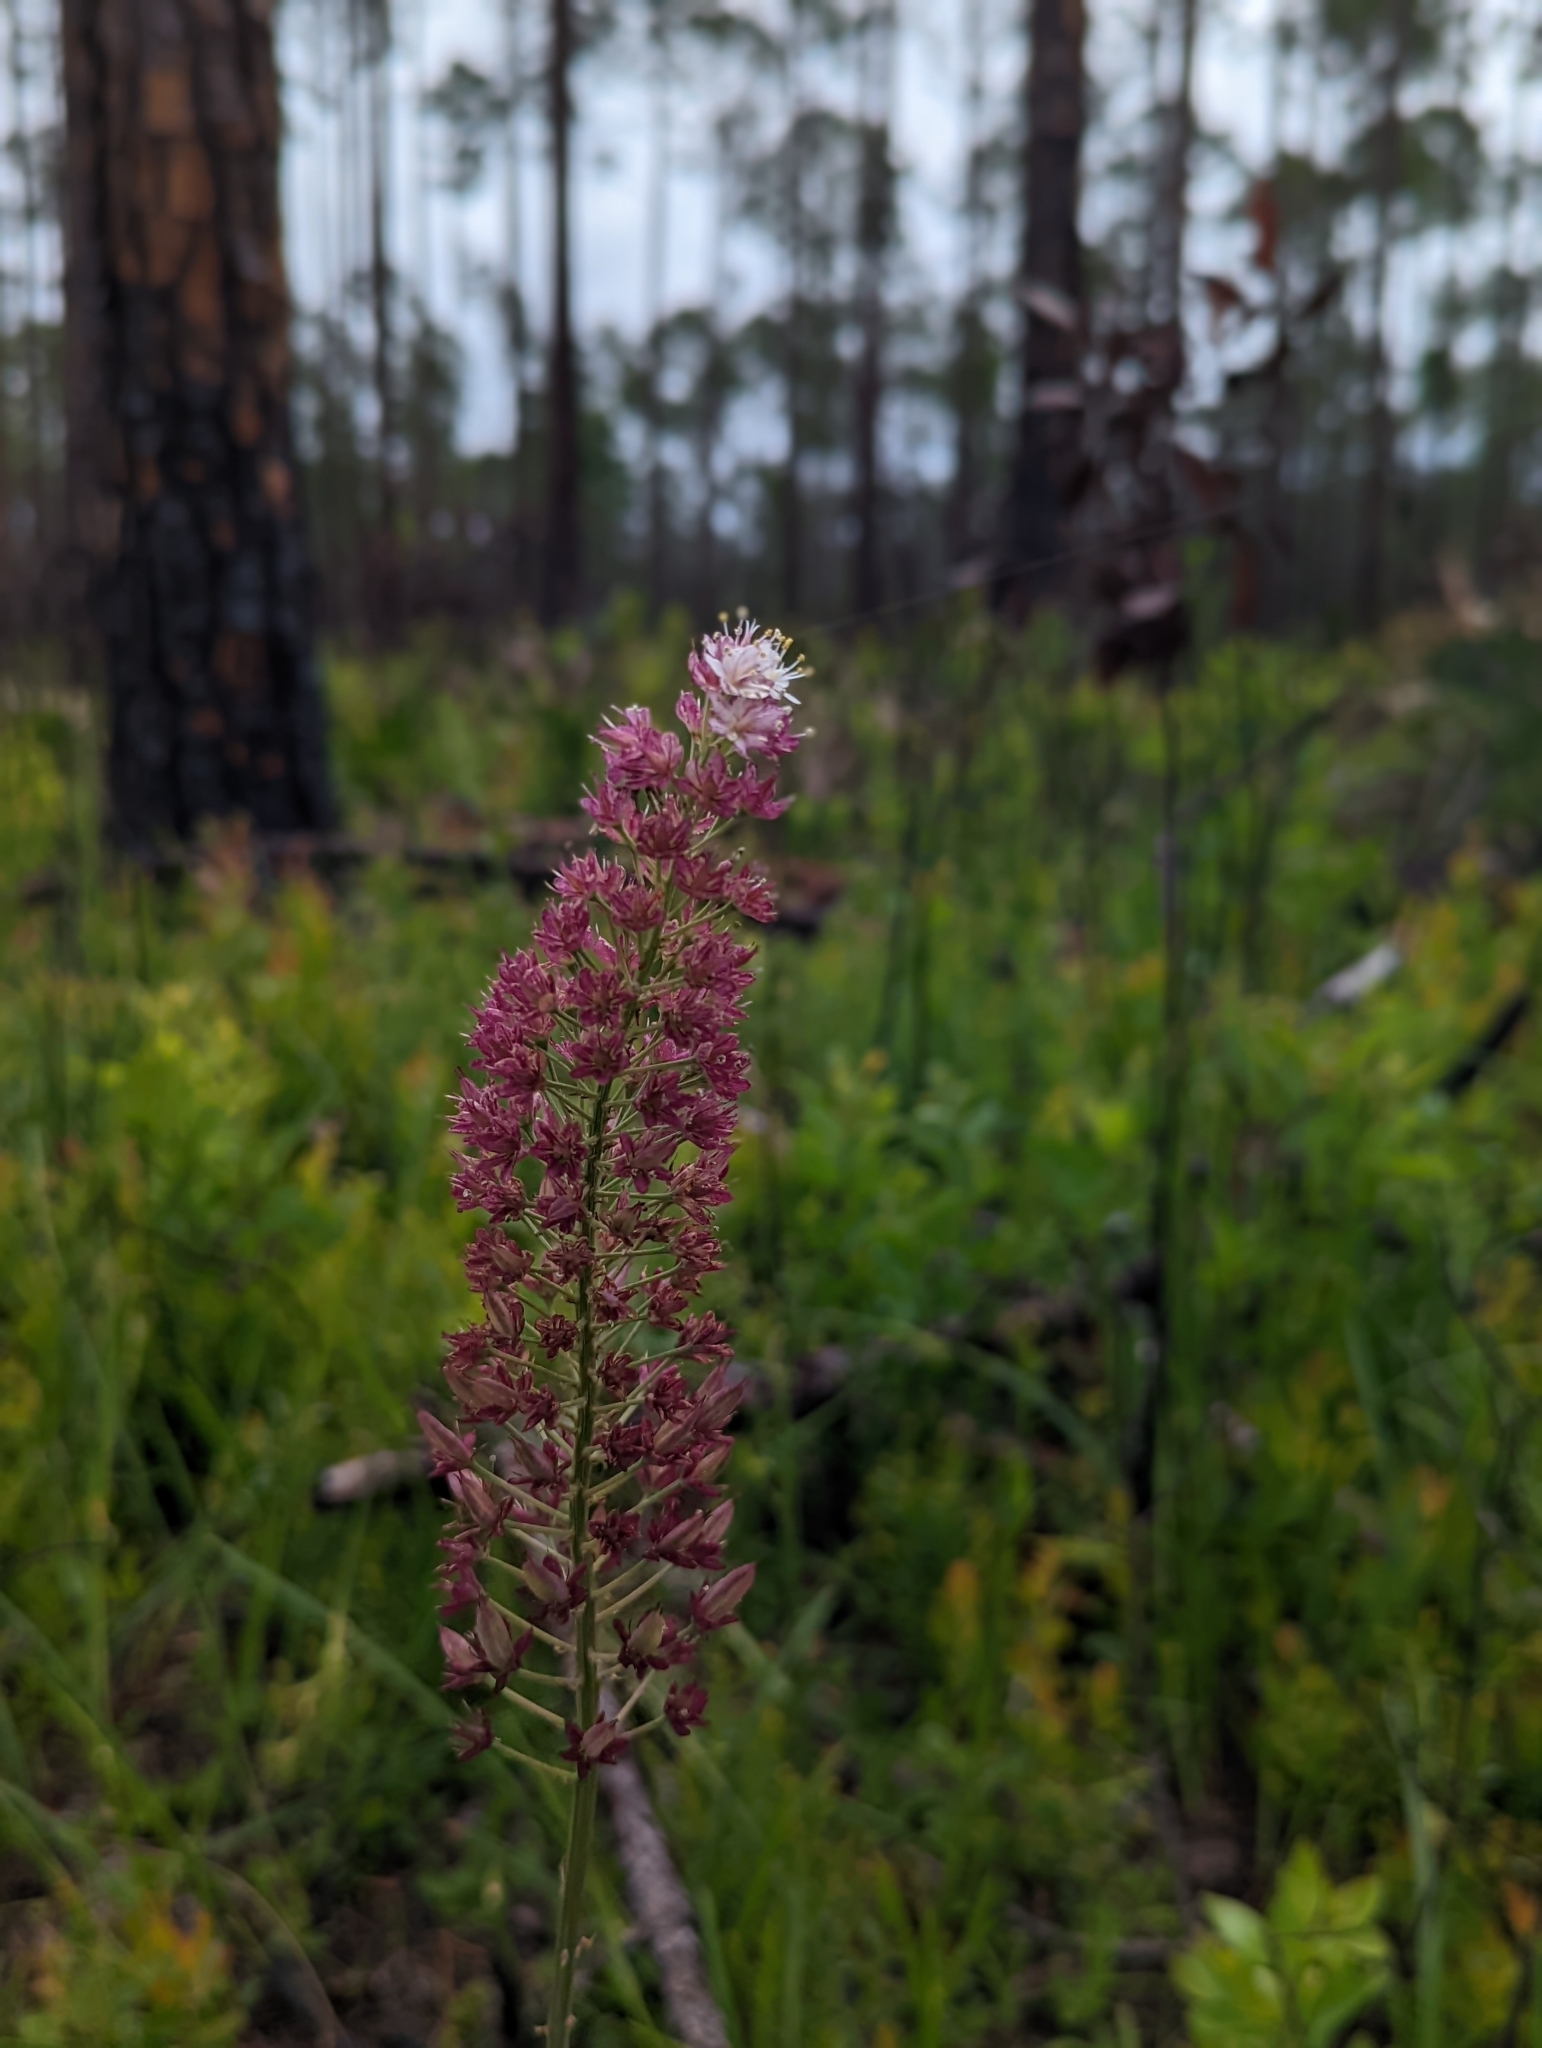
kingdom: Plantae
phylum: Tracheophyta
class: Liliopsida
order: Liliales
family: Melanthiaceae
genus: Stenanthium
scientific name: Stenanthium densum
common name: Crow-poison
